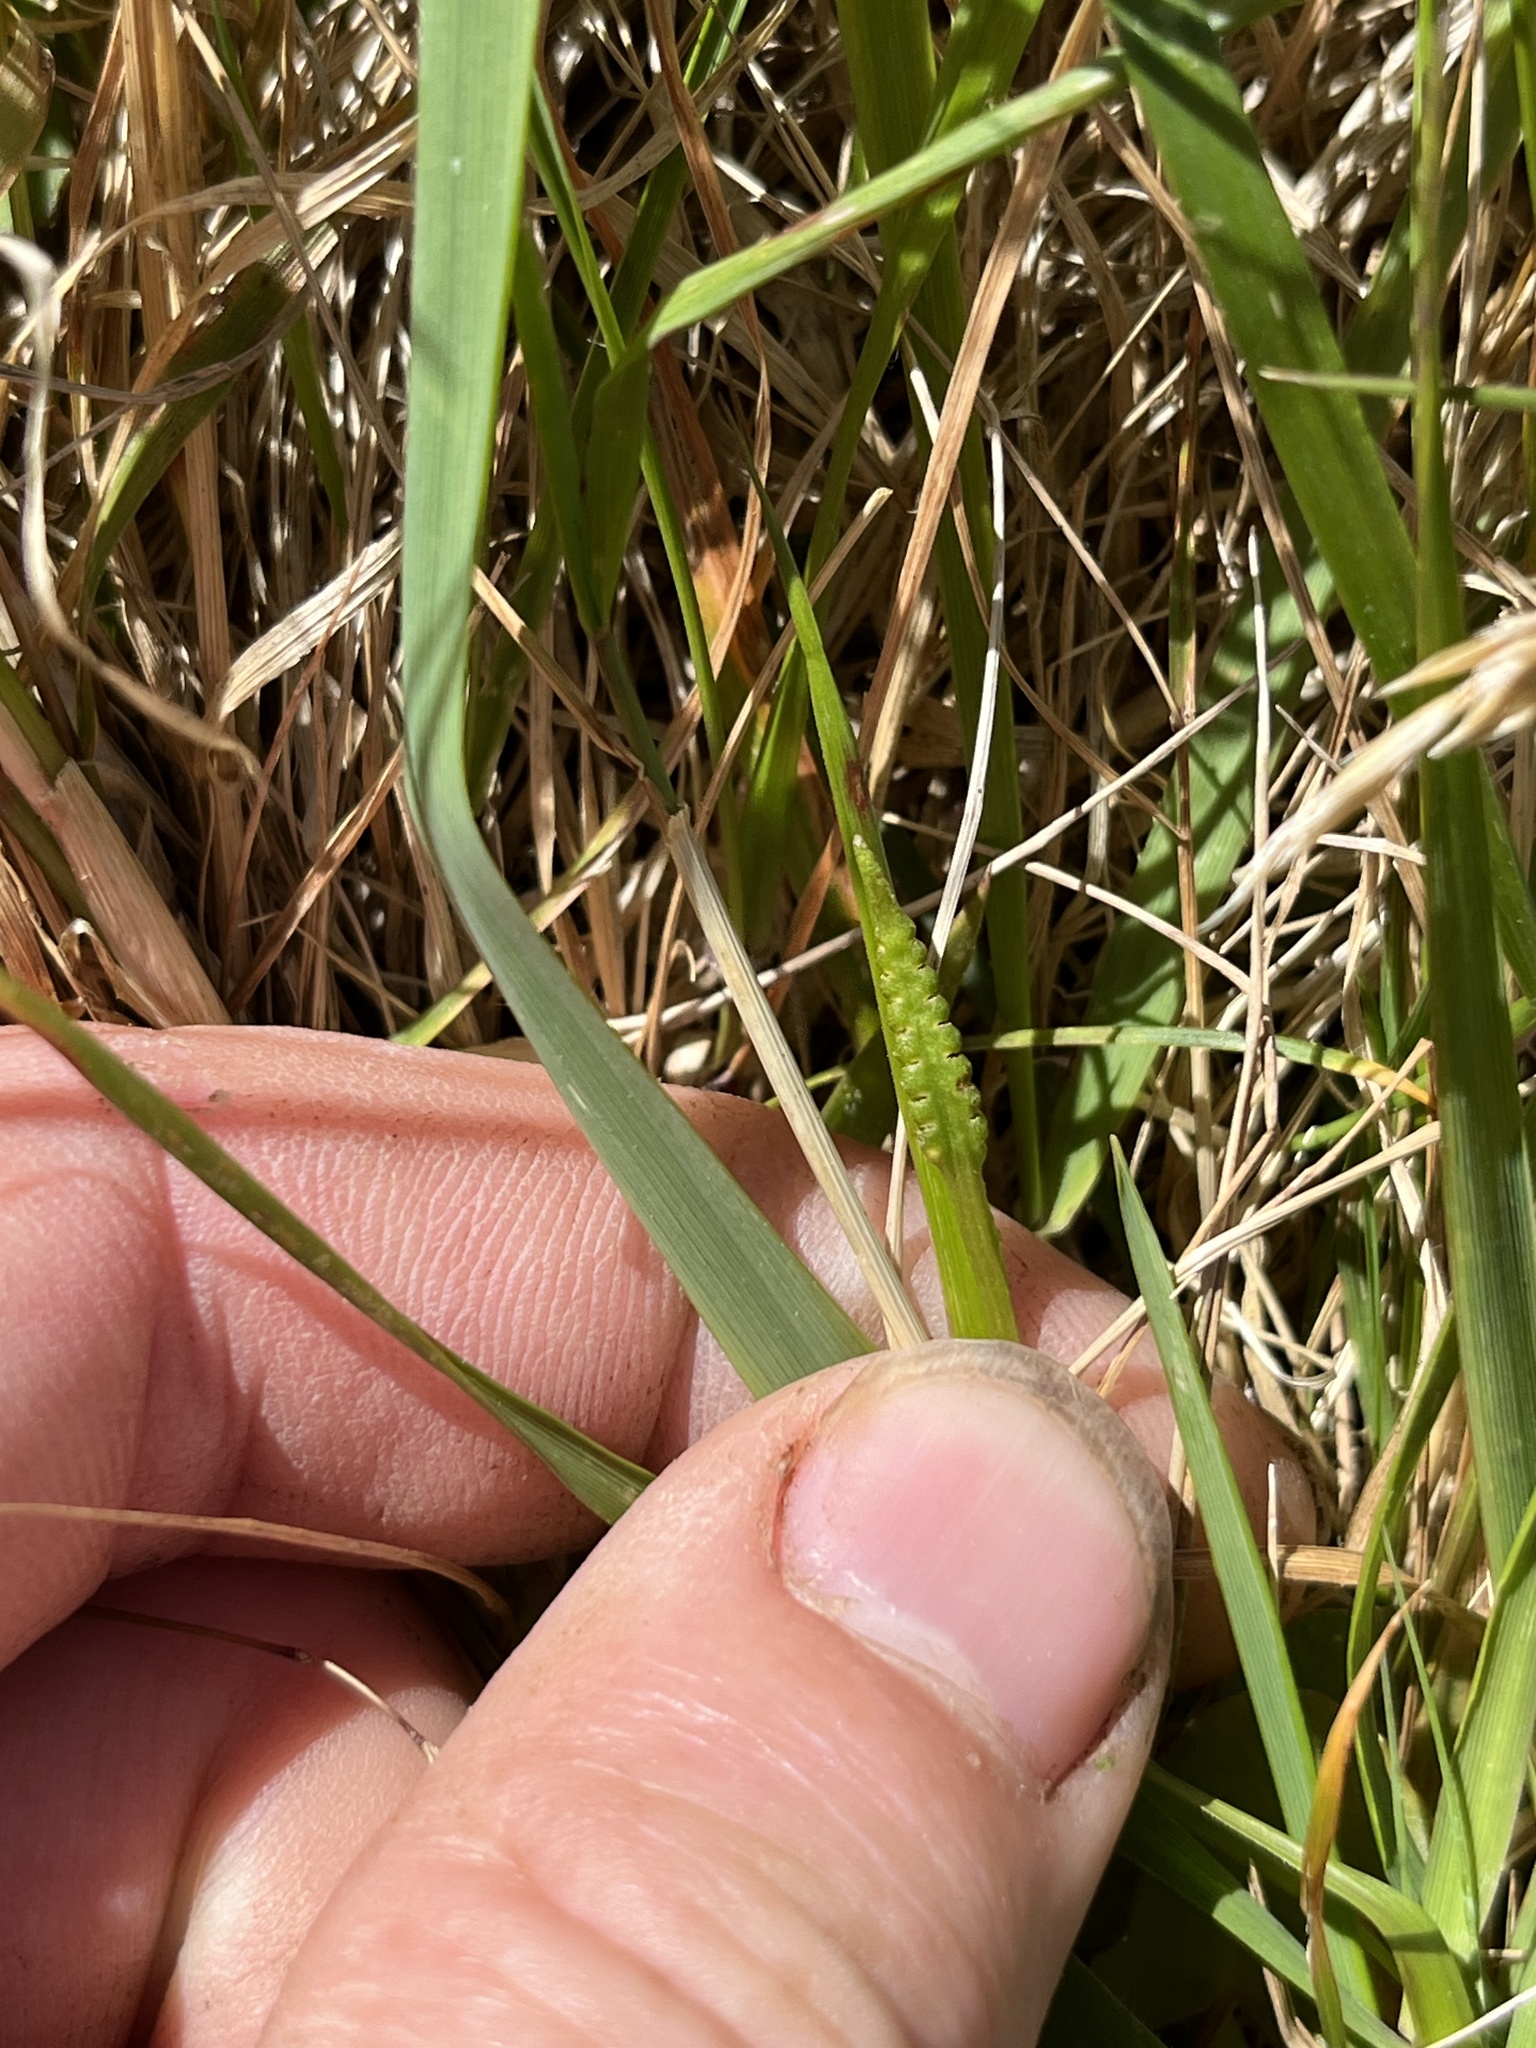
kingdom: Plantae
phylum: Tracheophyta
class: Polypodiopsida
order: Ophioglossales
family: Ophioglossaceae
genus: Ophioglossum
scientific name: Ophioglossum coriaceum
